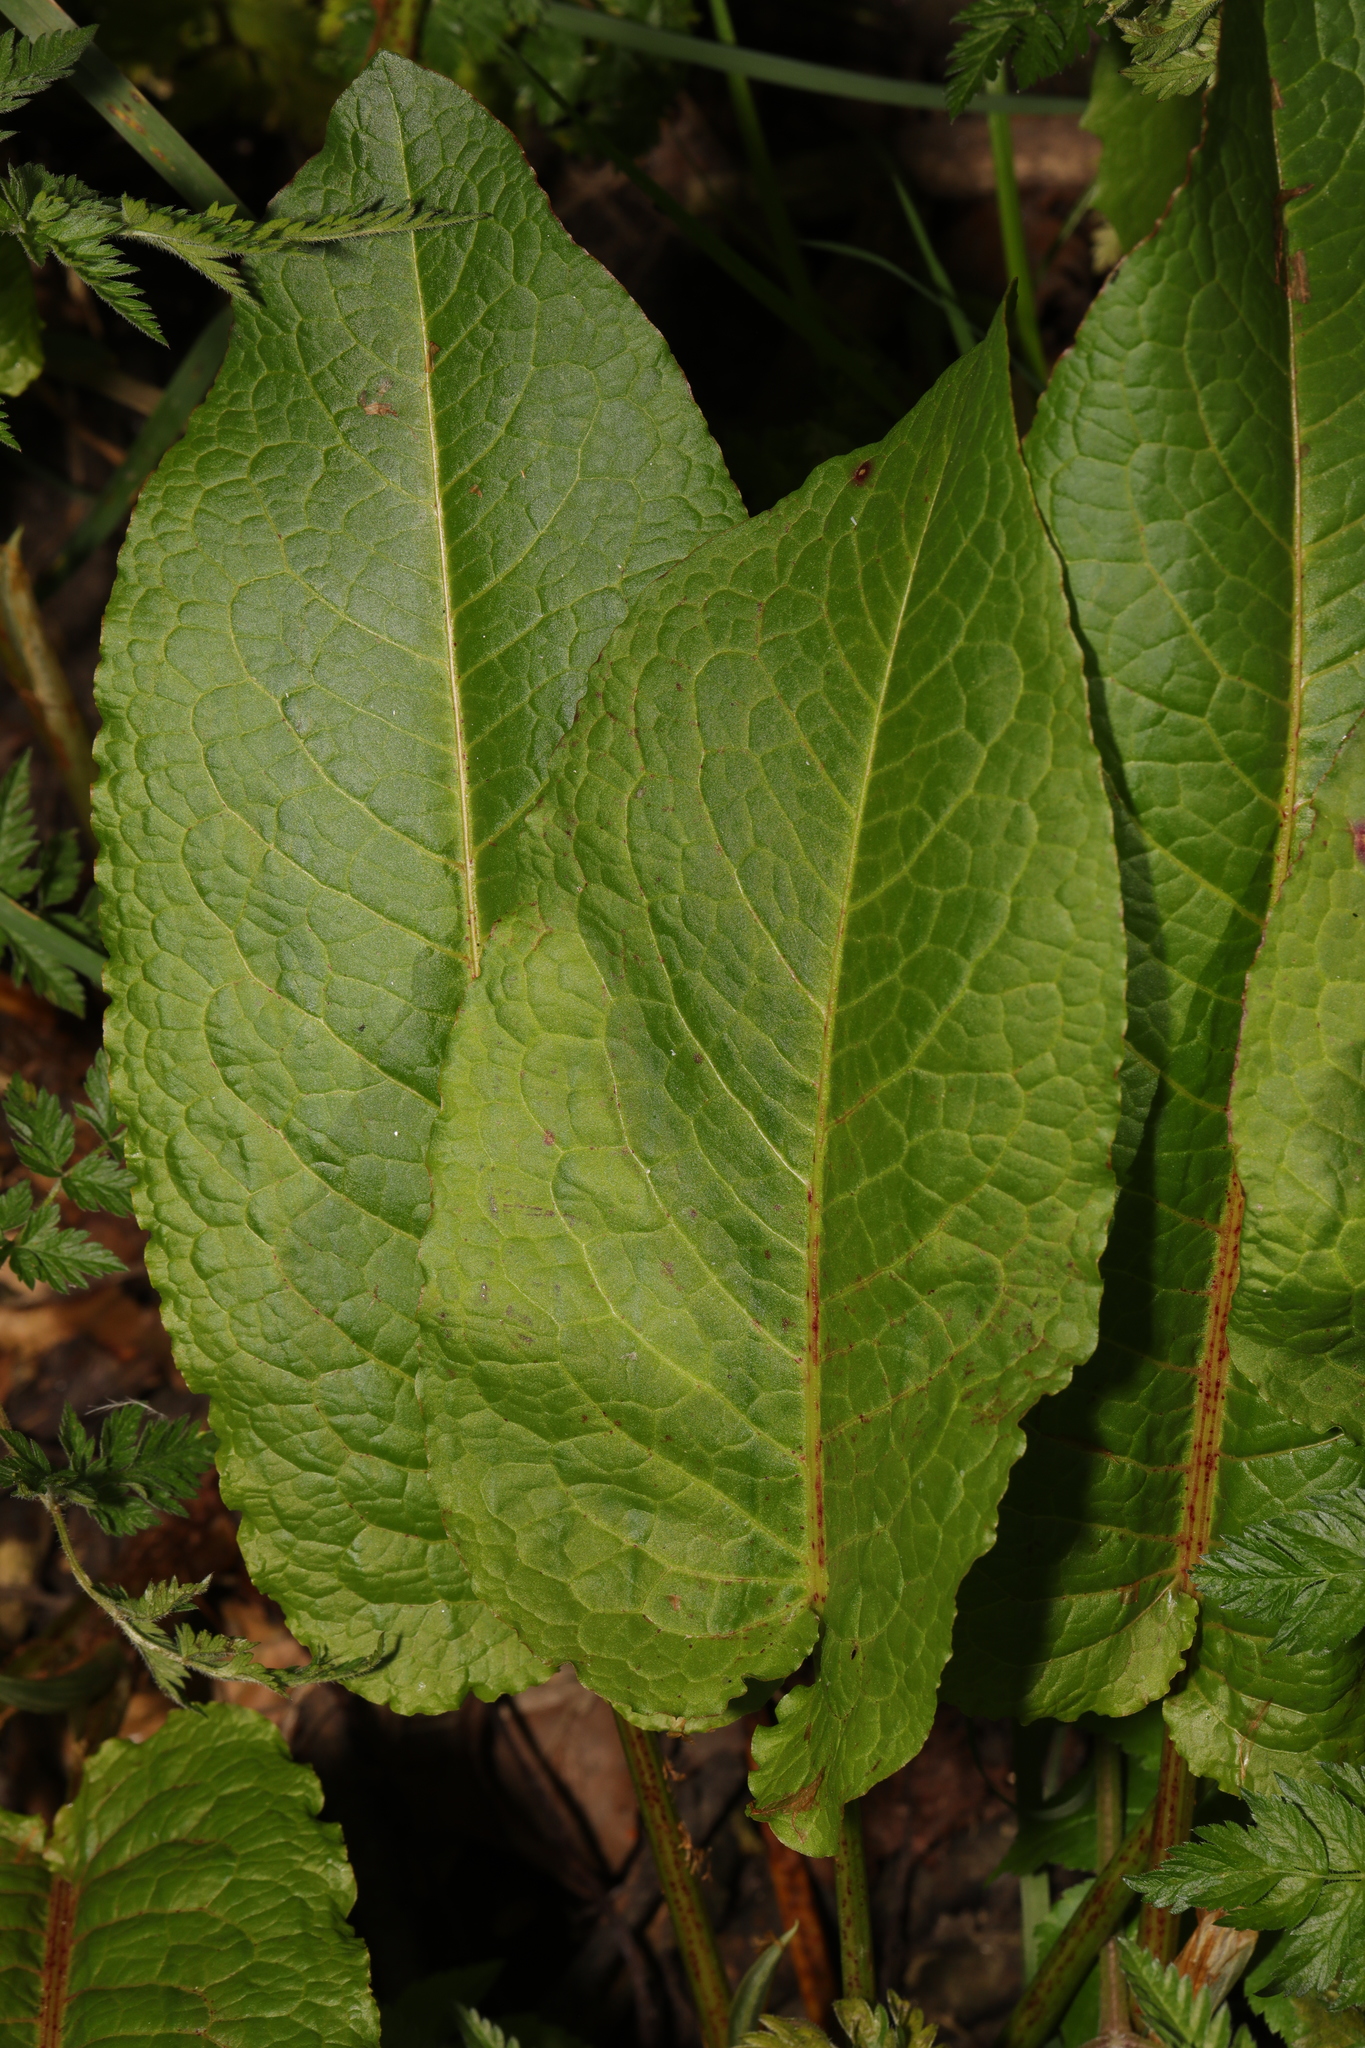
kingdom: Plantae
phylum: Tracheophyta
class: Magnoliopsida
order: Caryophyllales
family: Polygonaceae
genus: Rumex
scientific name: Rumex obtusifolius
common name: Bitter dock
